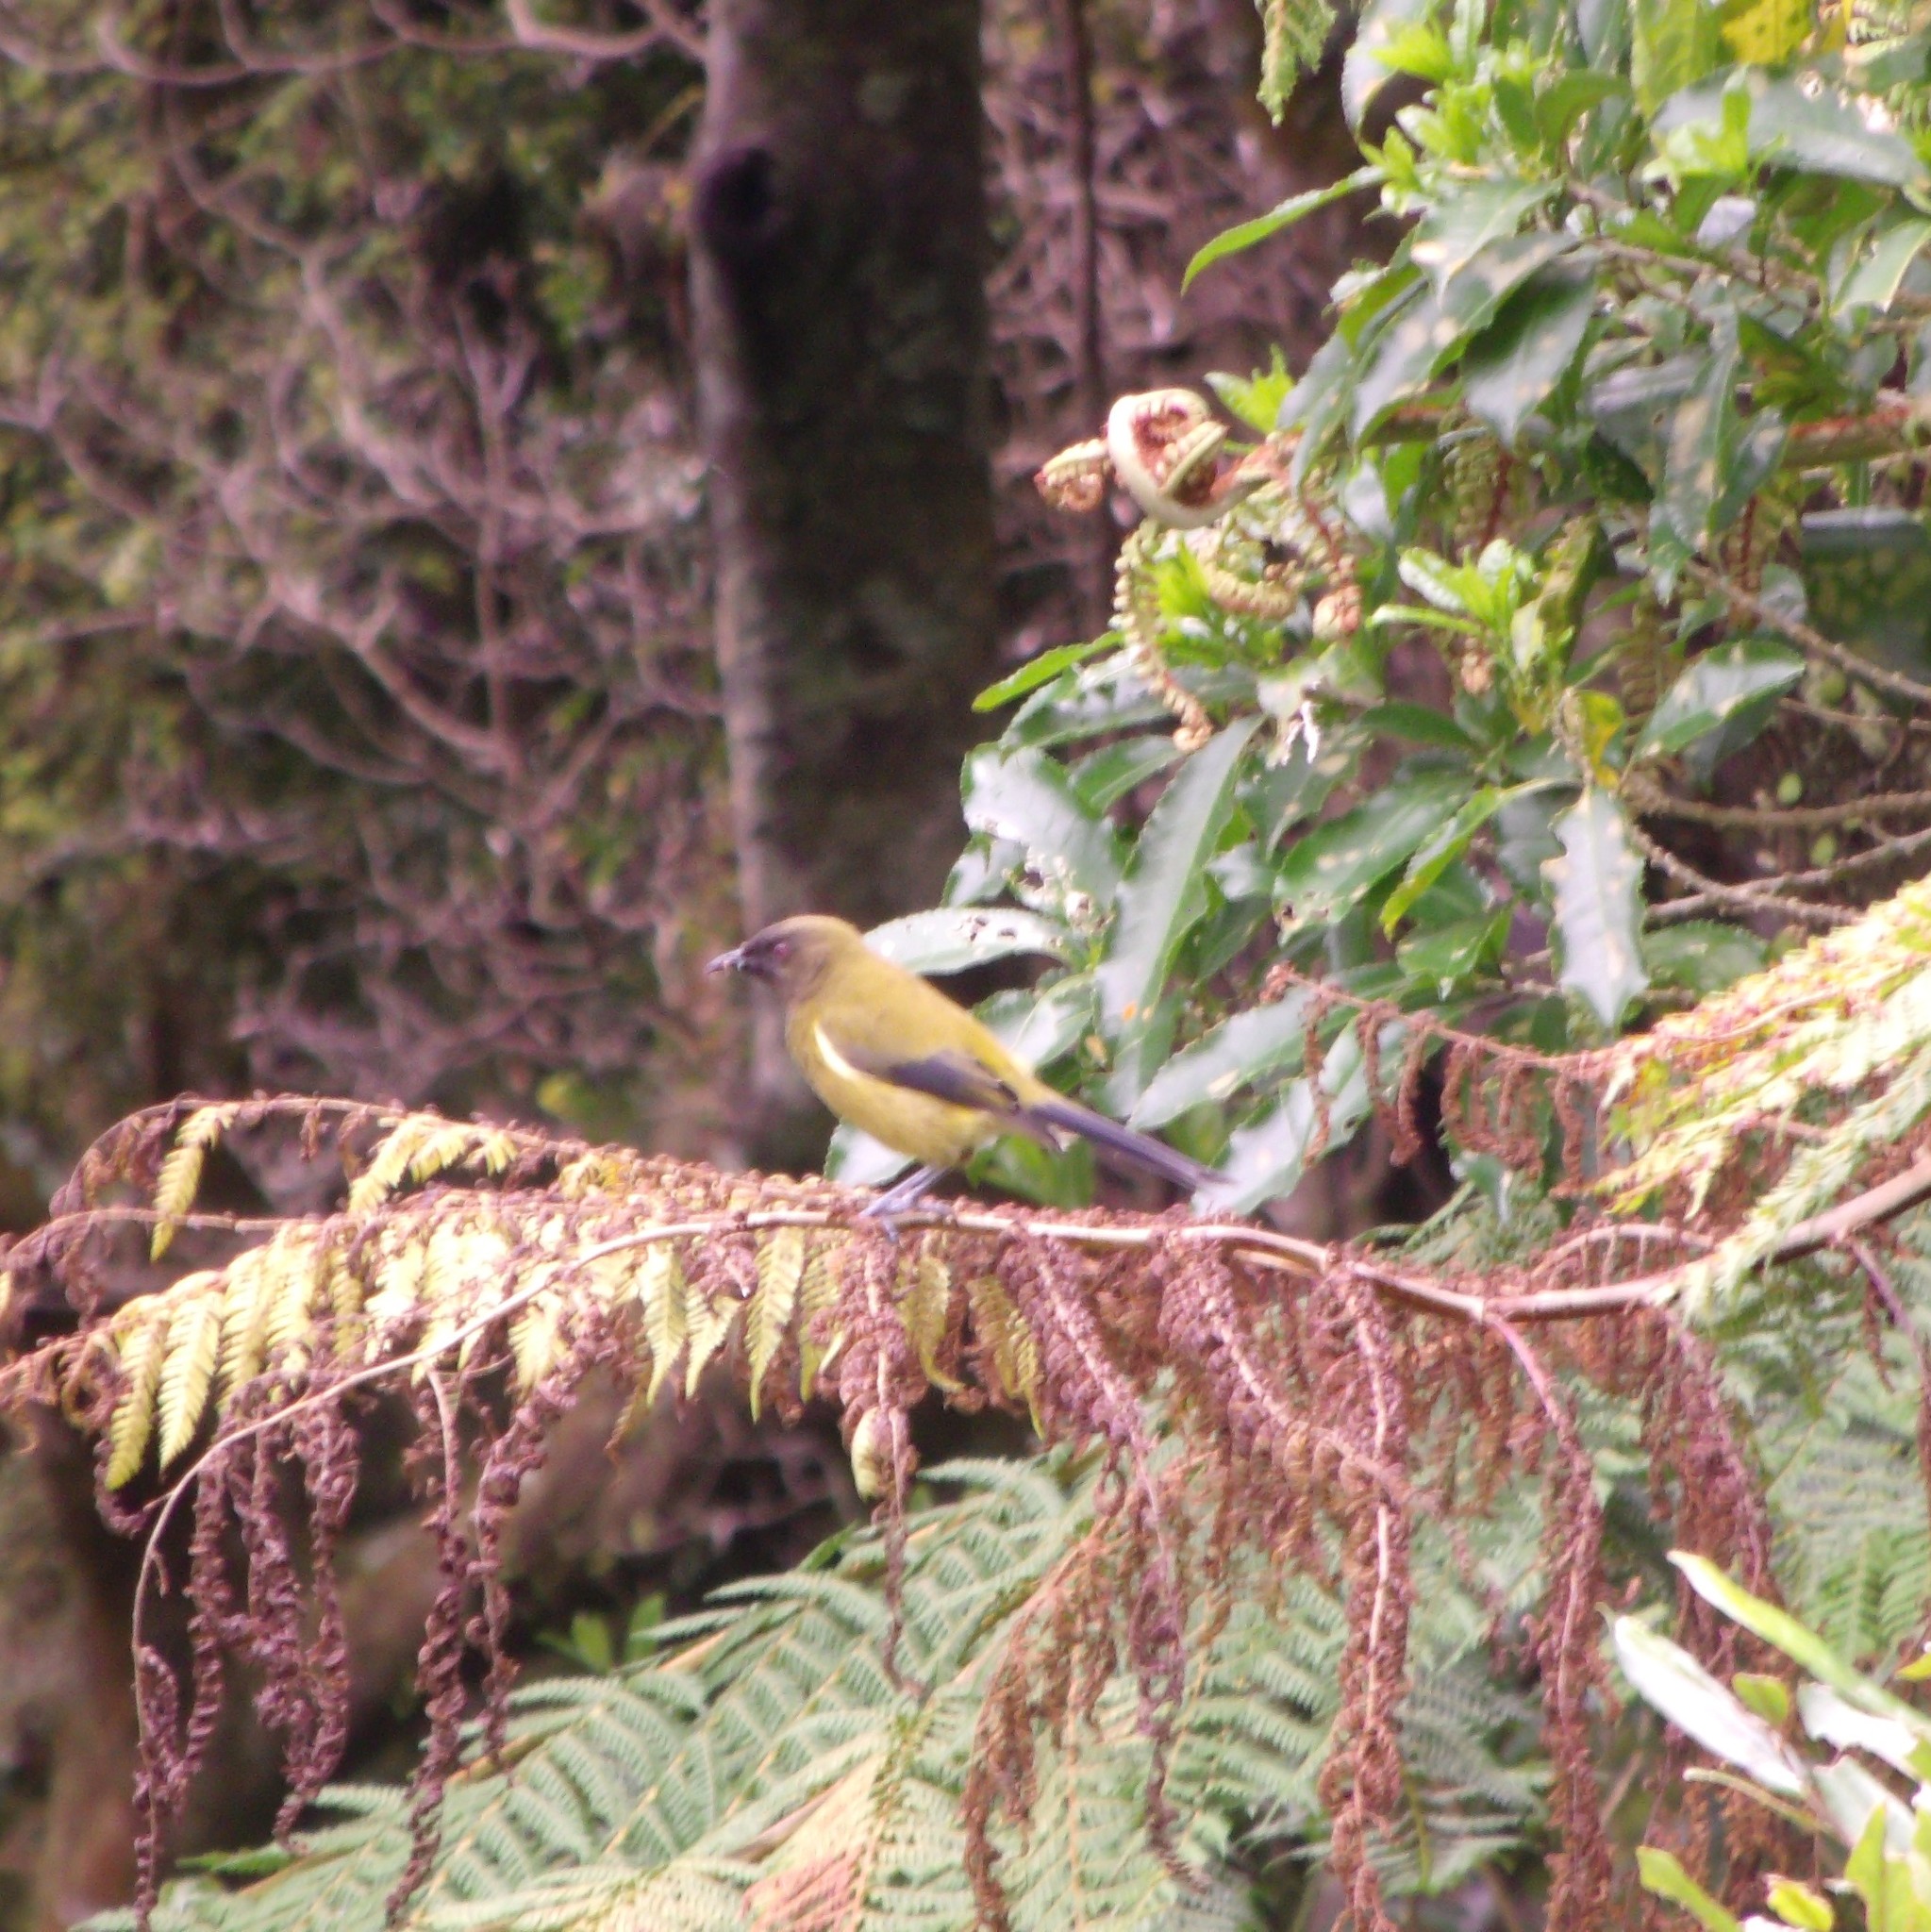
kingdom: Animalia
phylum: Chordata
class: Aves
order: Passeriformes
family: Meliphagidae
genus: Anthornis
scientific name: Anthornis melanura
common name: New zealand bellbird
